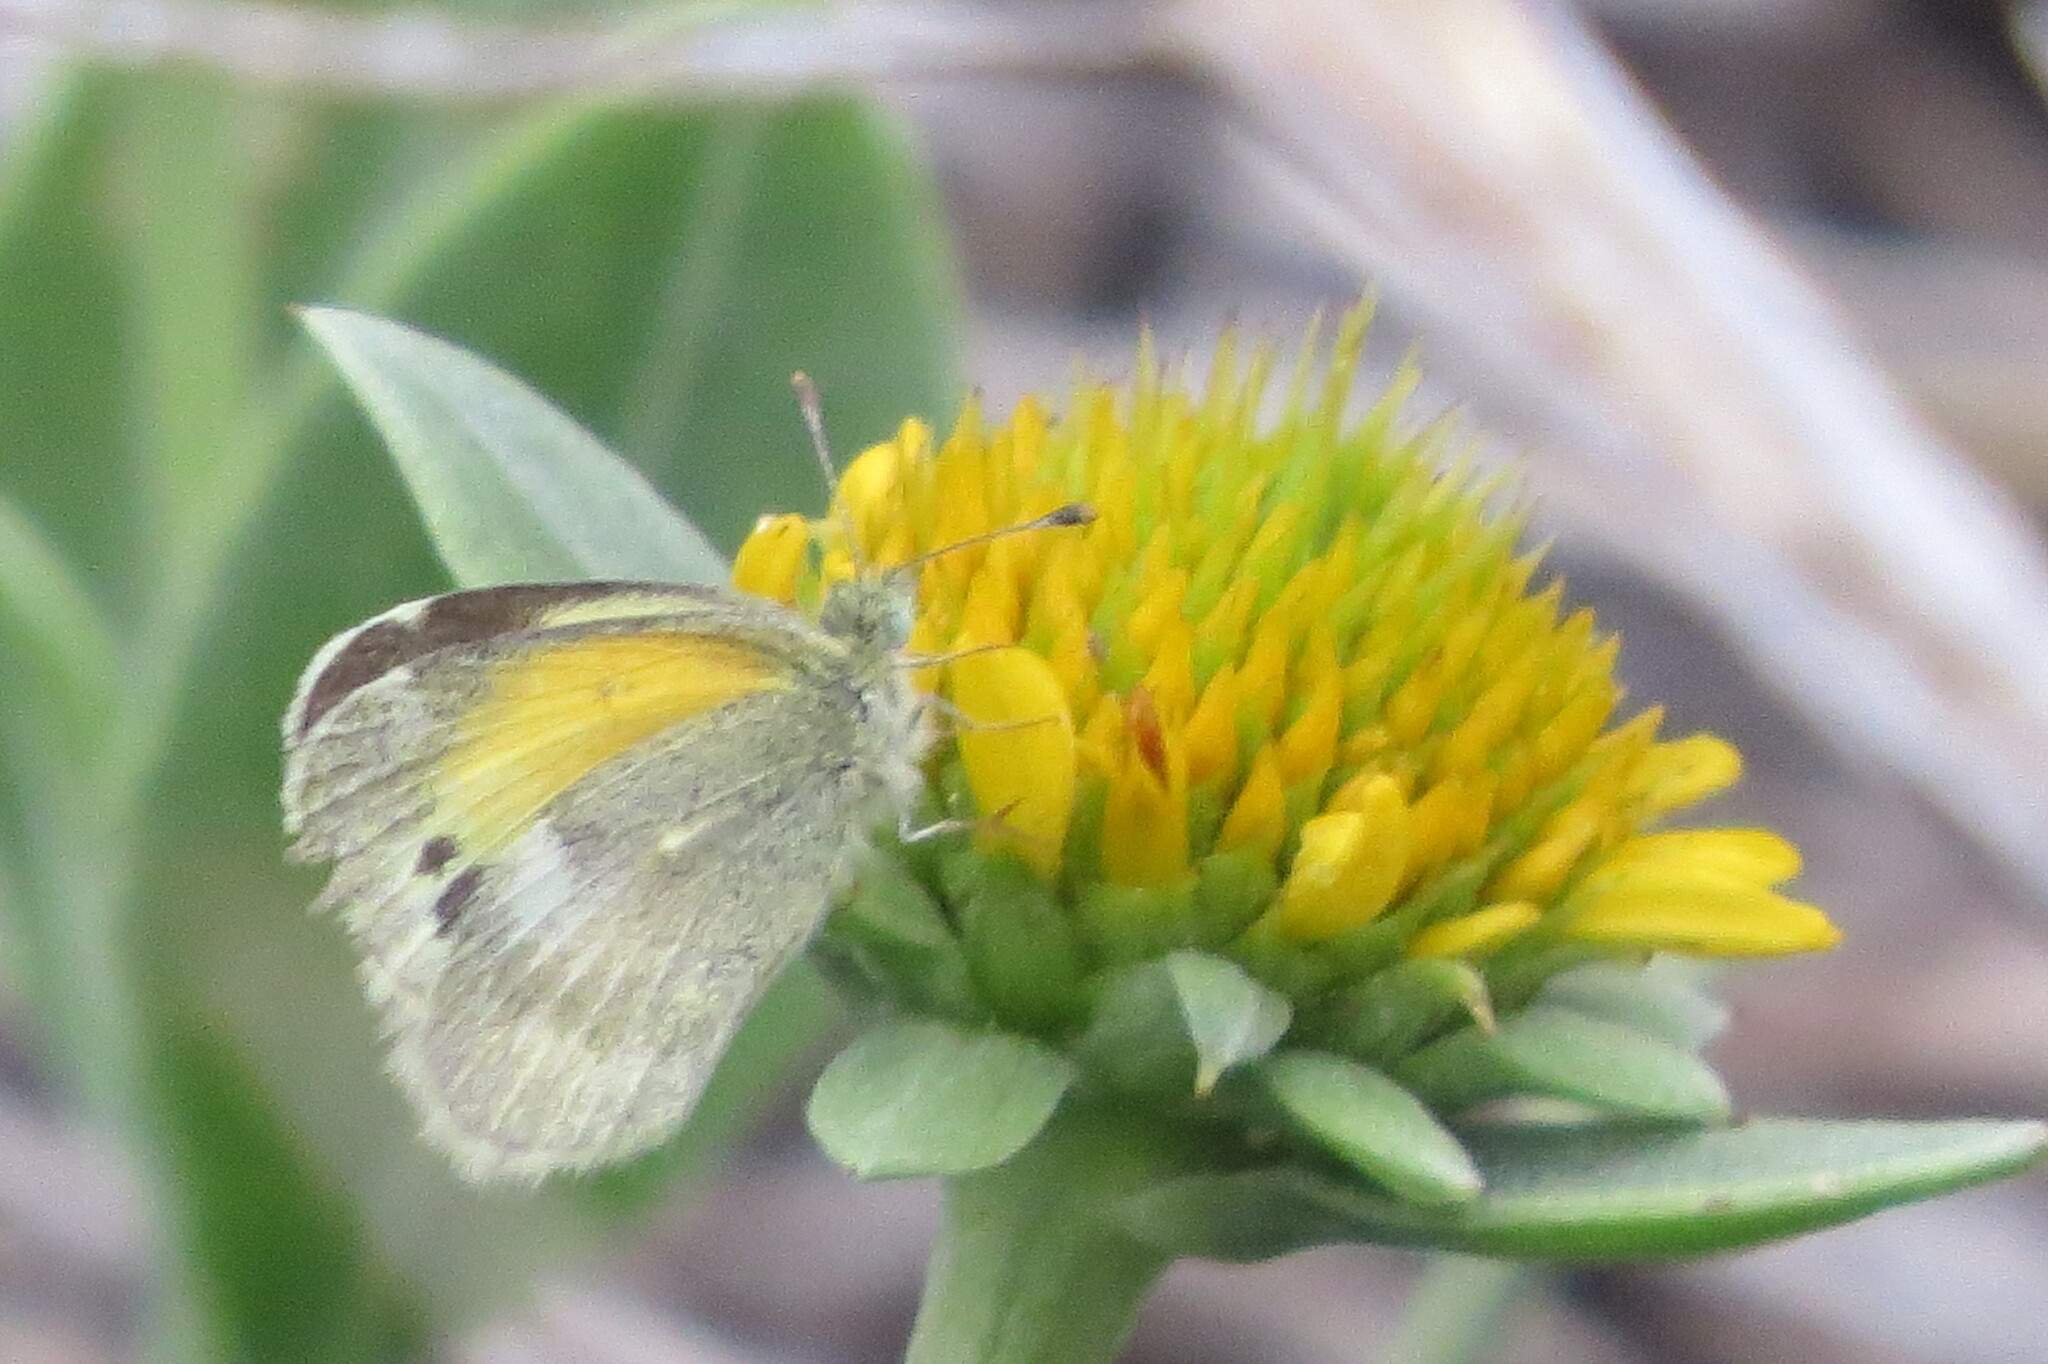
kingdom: Animalia
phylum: Arthropoda
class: Insecta
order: Lepidoptera
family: Pieridae
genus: Nathalis
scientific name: Nathalis iole
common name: Dainty sulphur
